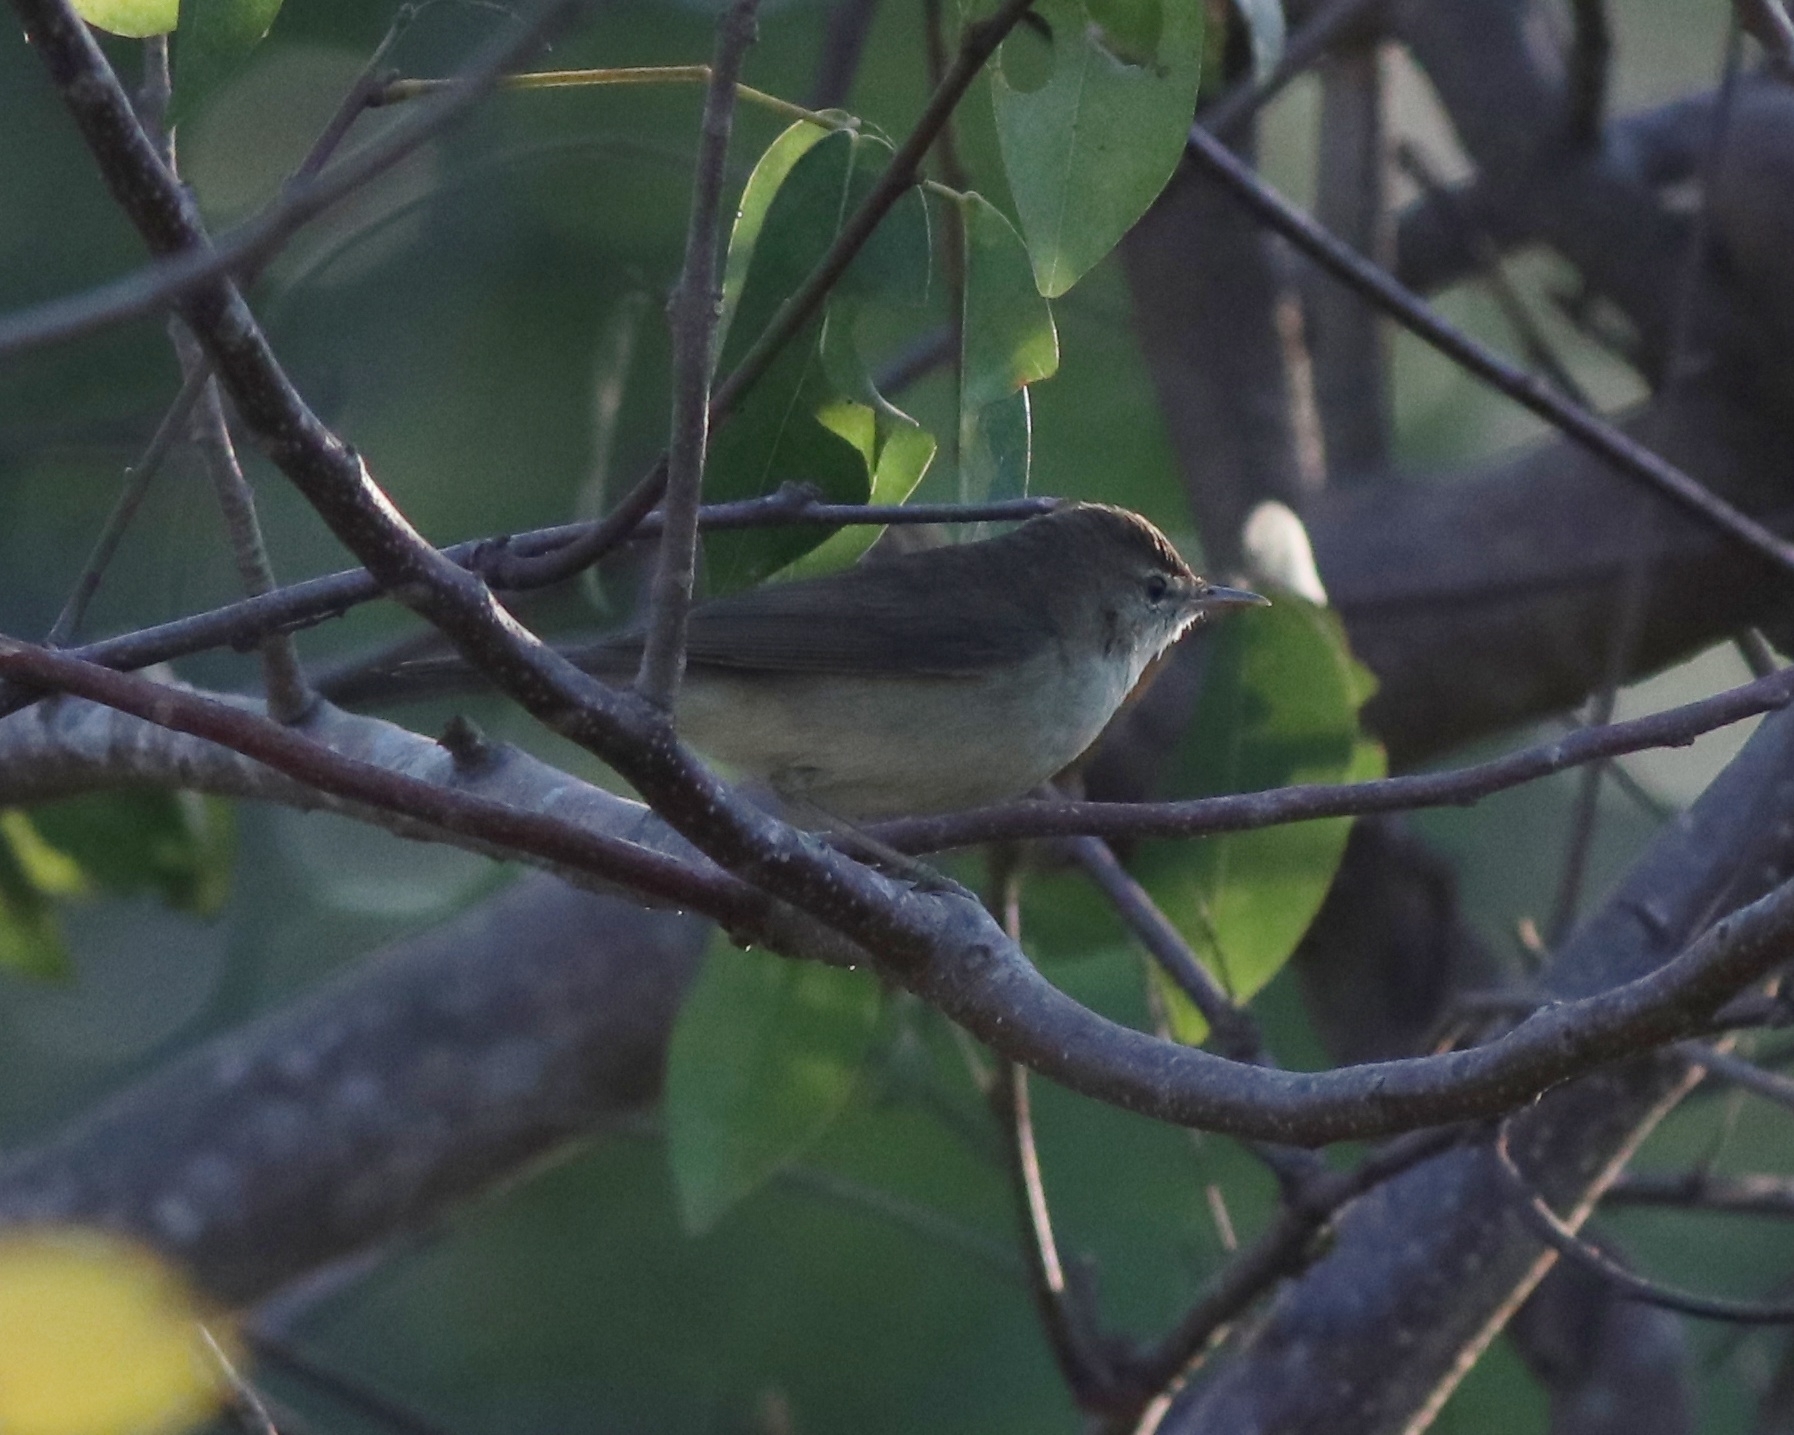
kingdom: Animalia
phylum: Chordata
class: Aves
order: Passeriformes
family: Acrocephalidae
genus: Acrocephalus
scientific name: Acrocephalus dumetorum
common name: Blyth's reed warbler
